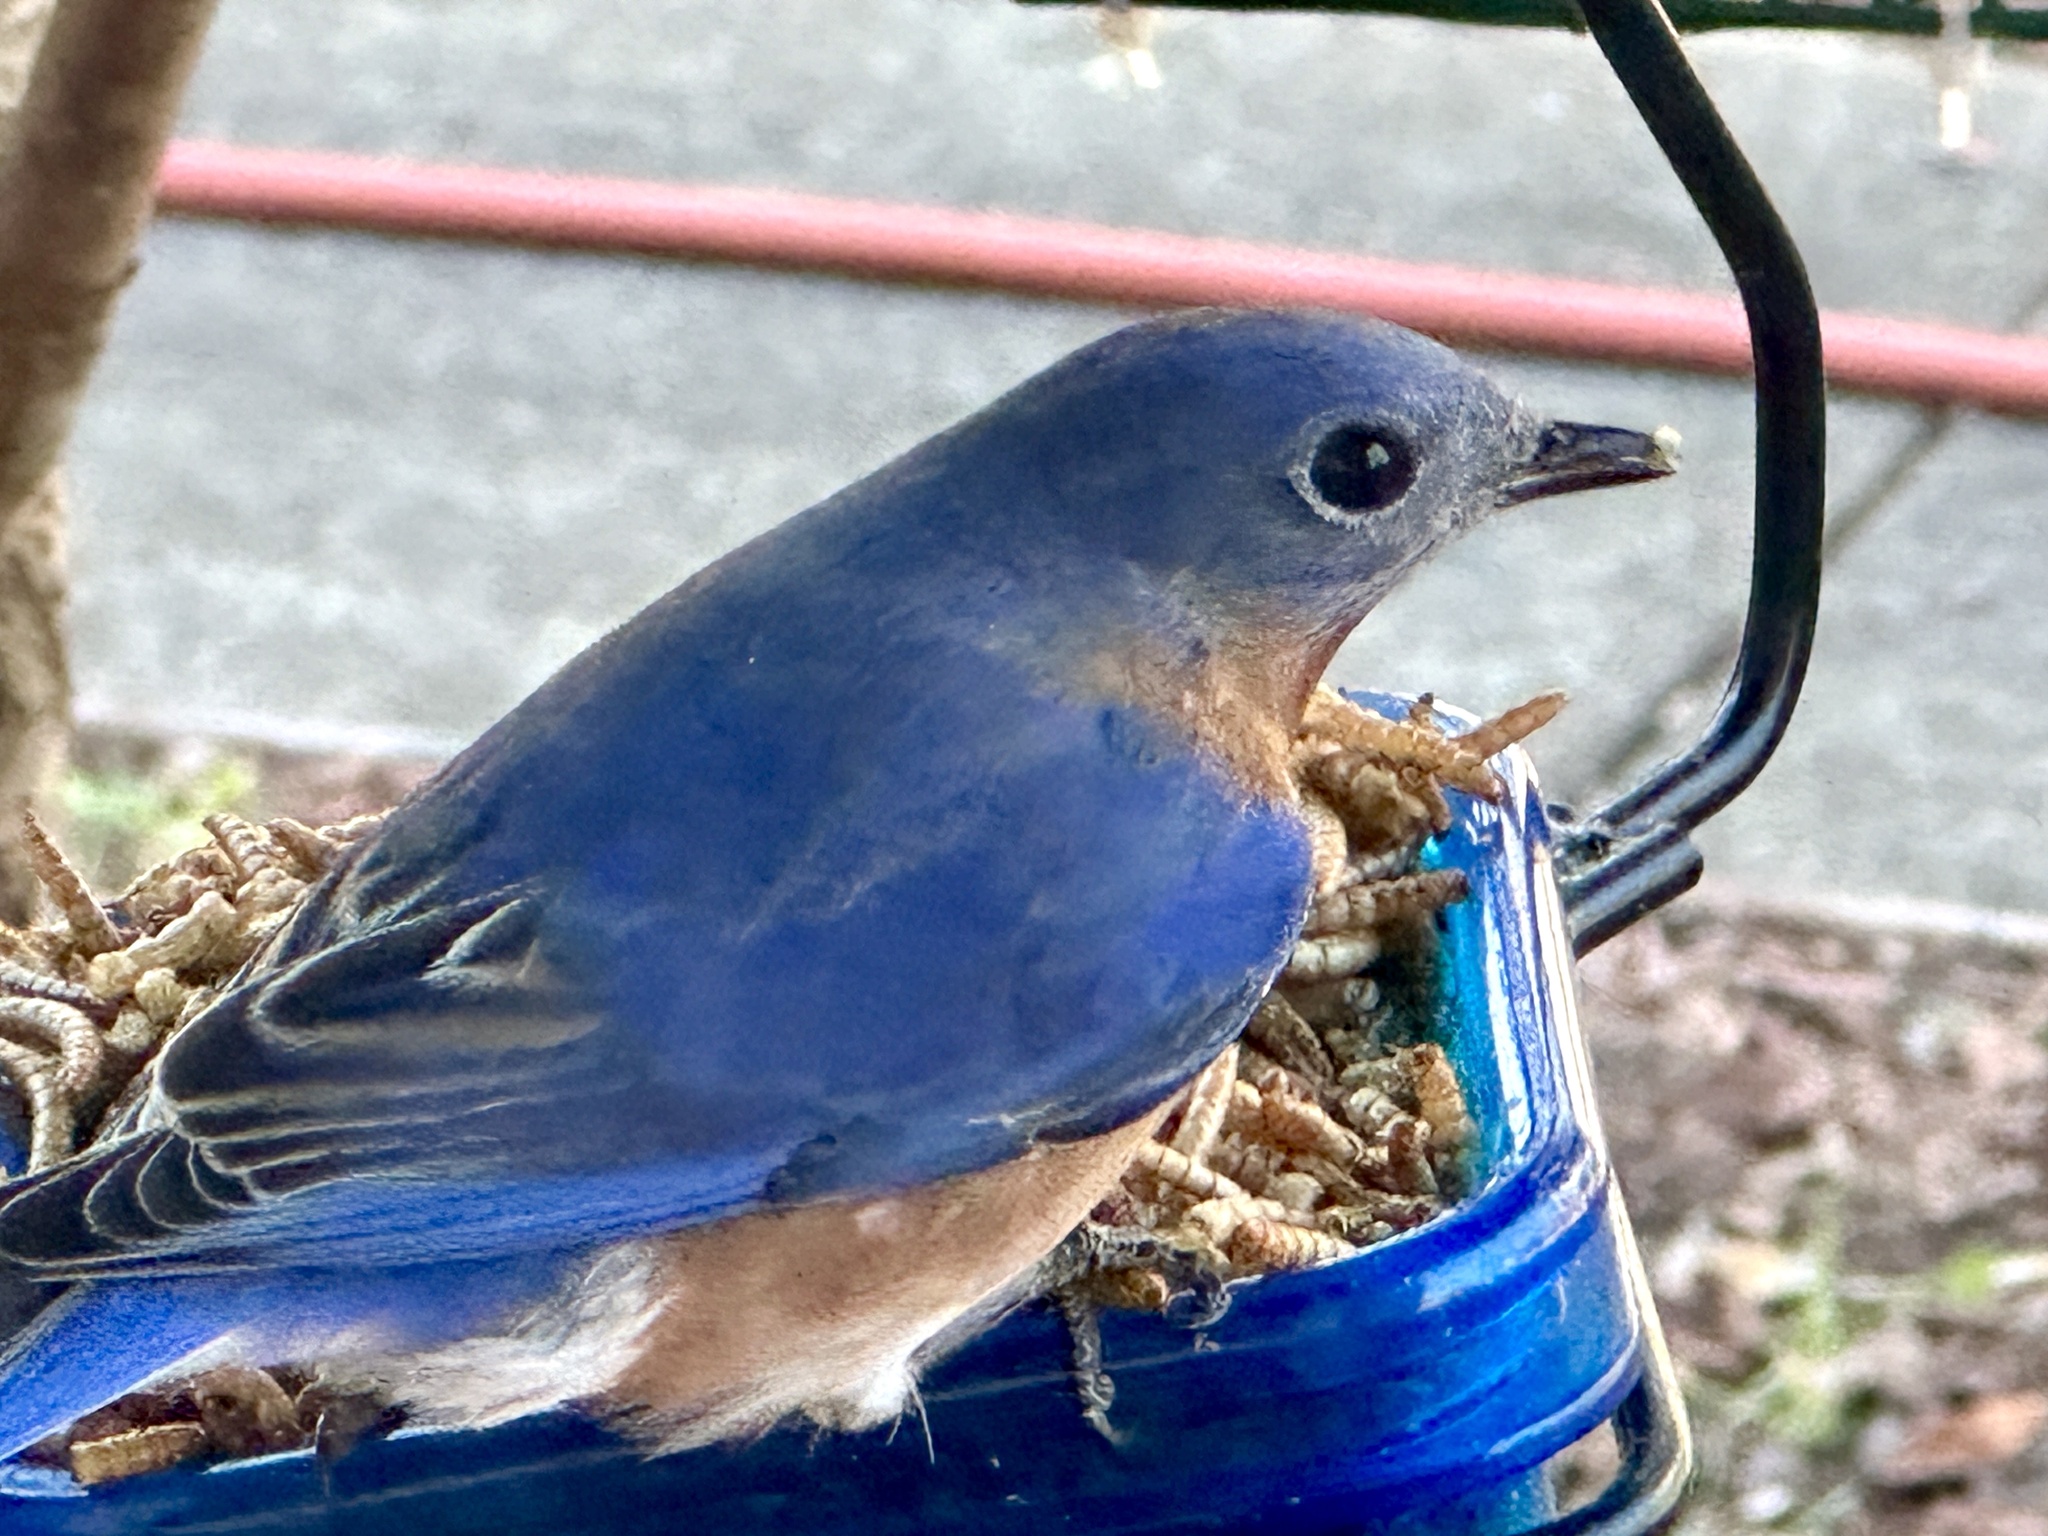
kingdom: Animalia
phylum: Chordata
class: Aves
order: Passeriformes
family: Turdidae
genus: Sialia
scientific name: Sialia sialis
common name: Eastern bluebird
